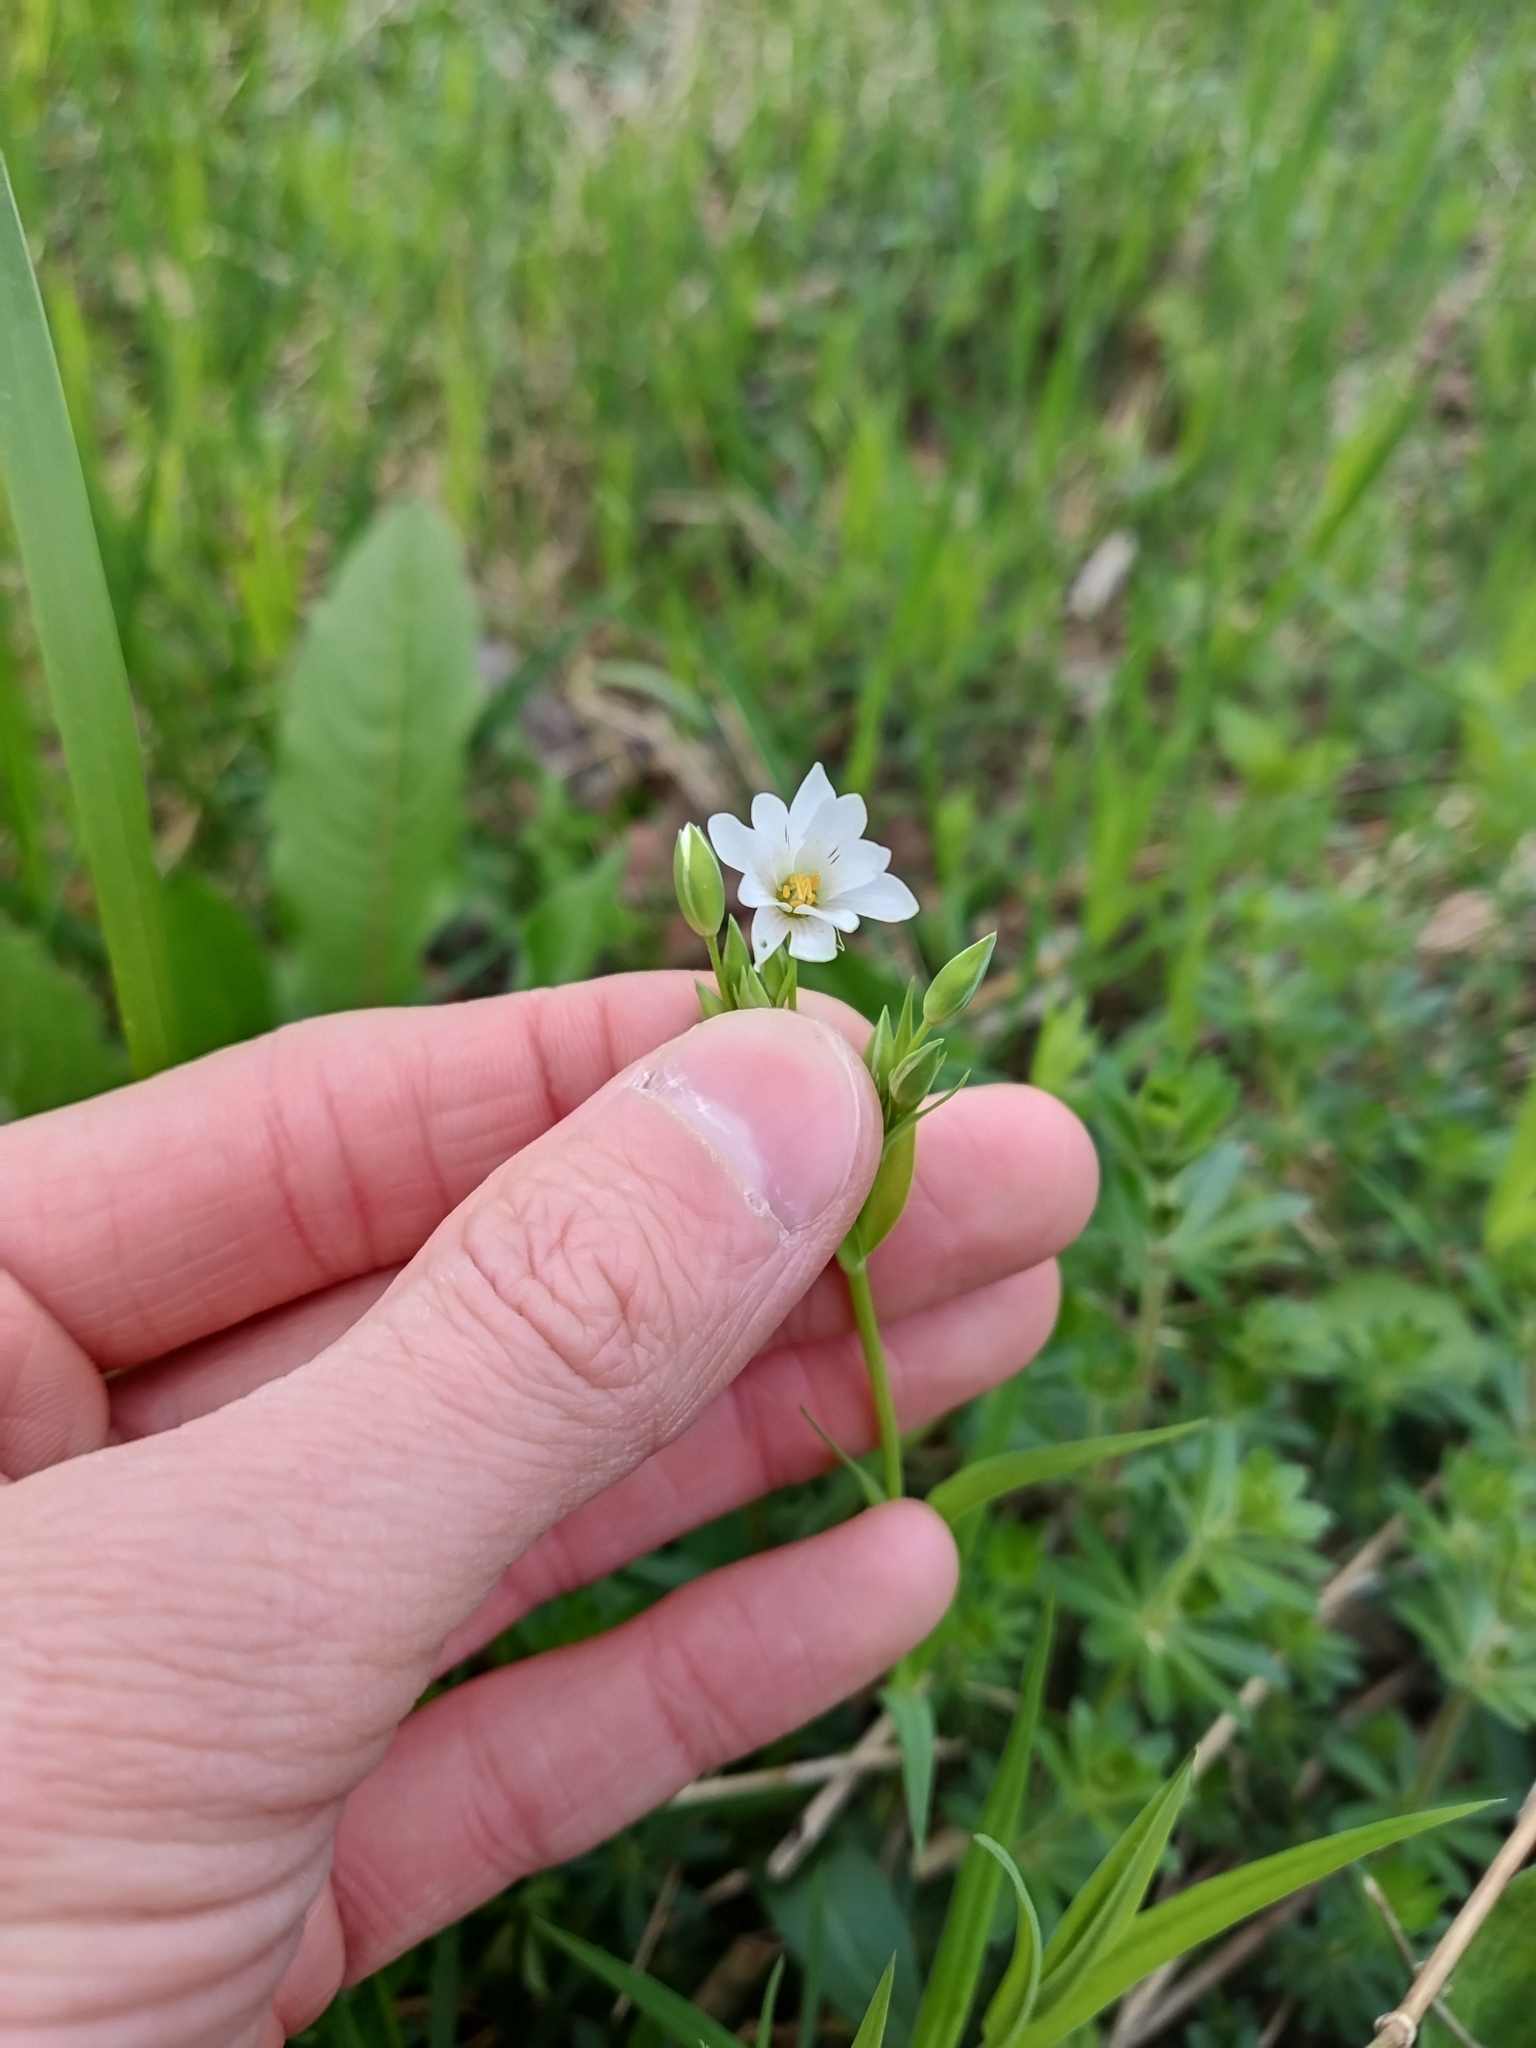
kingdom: Plantae
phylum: Tracheophyta
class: Magnoliopsida
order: Caryophyllales
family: Caryophyllaceae
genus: Rabelera
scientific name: Rabelera holostea
